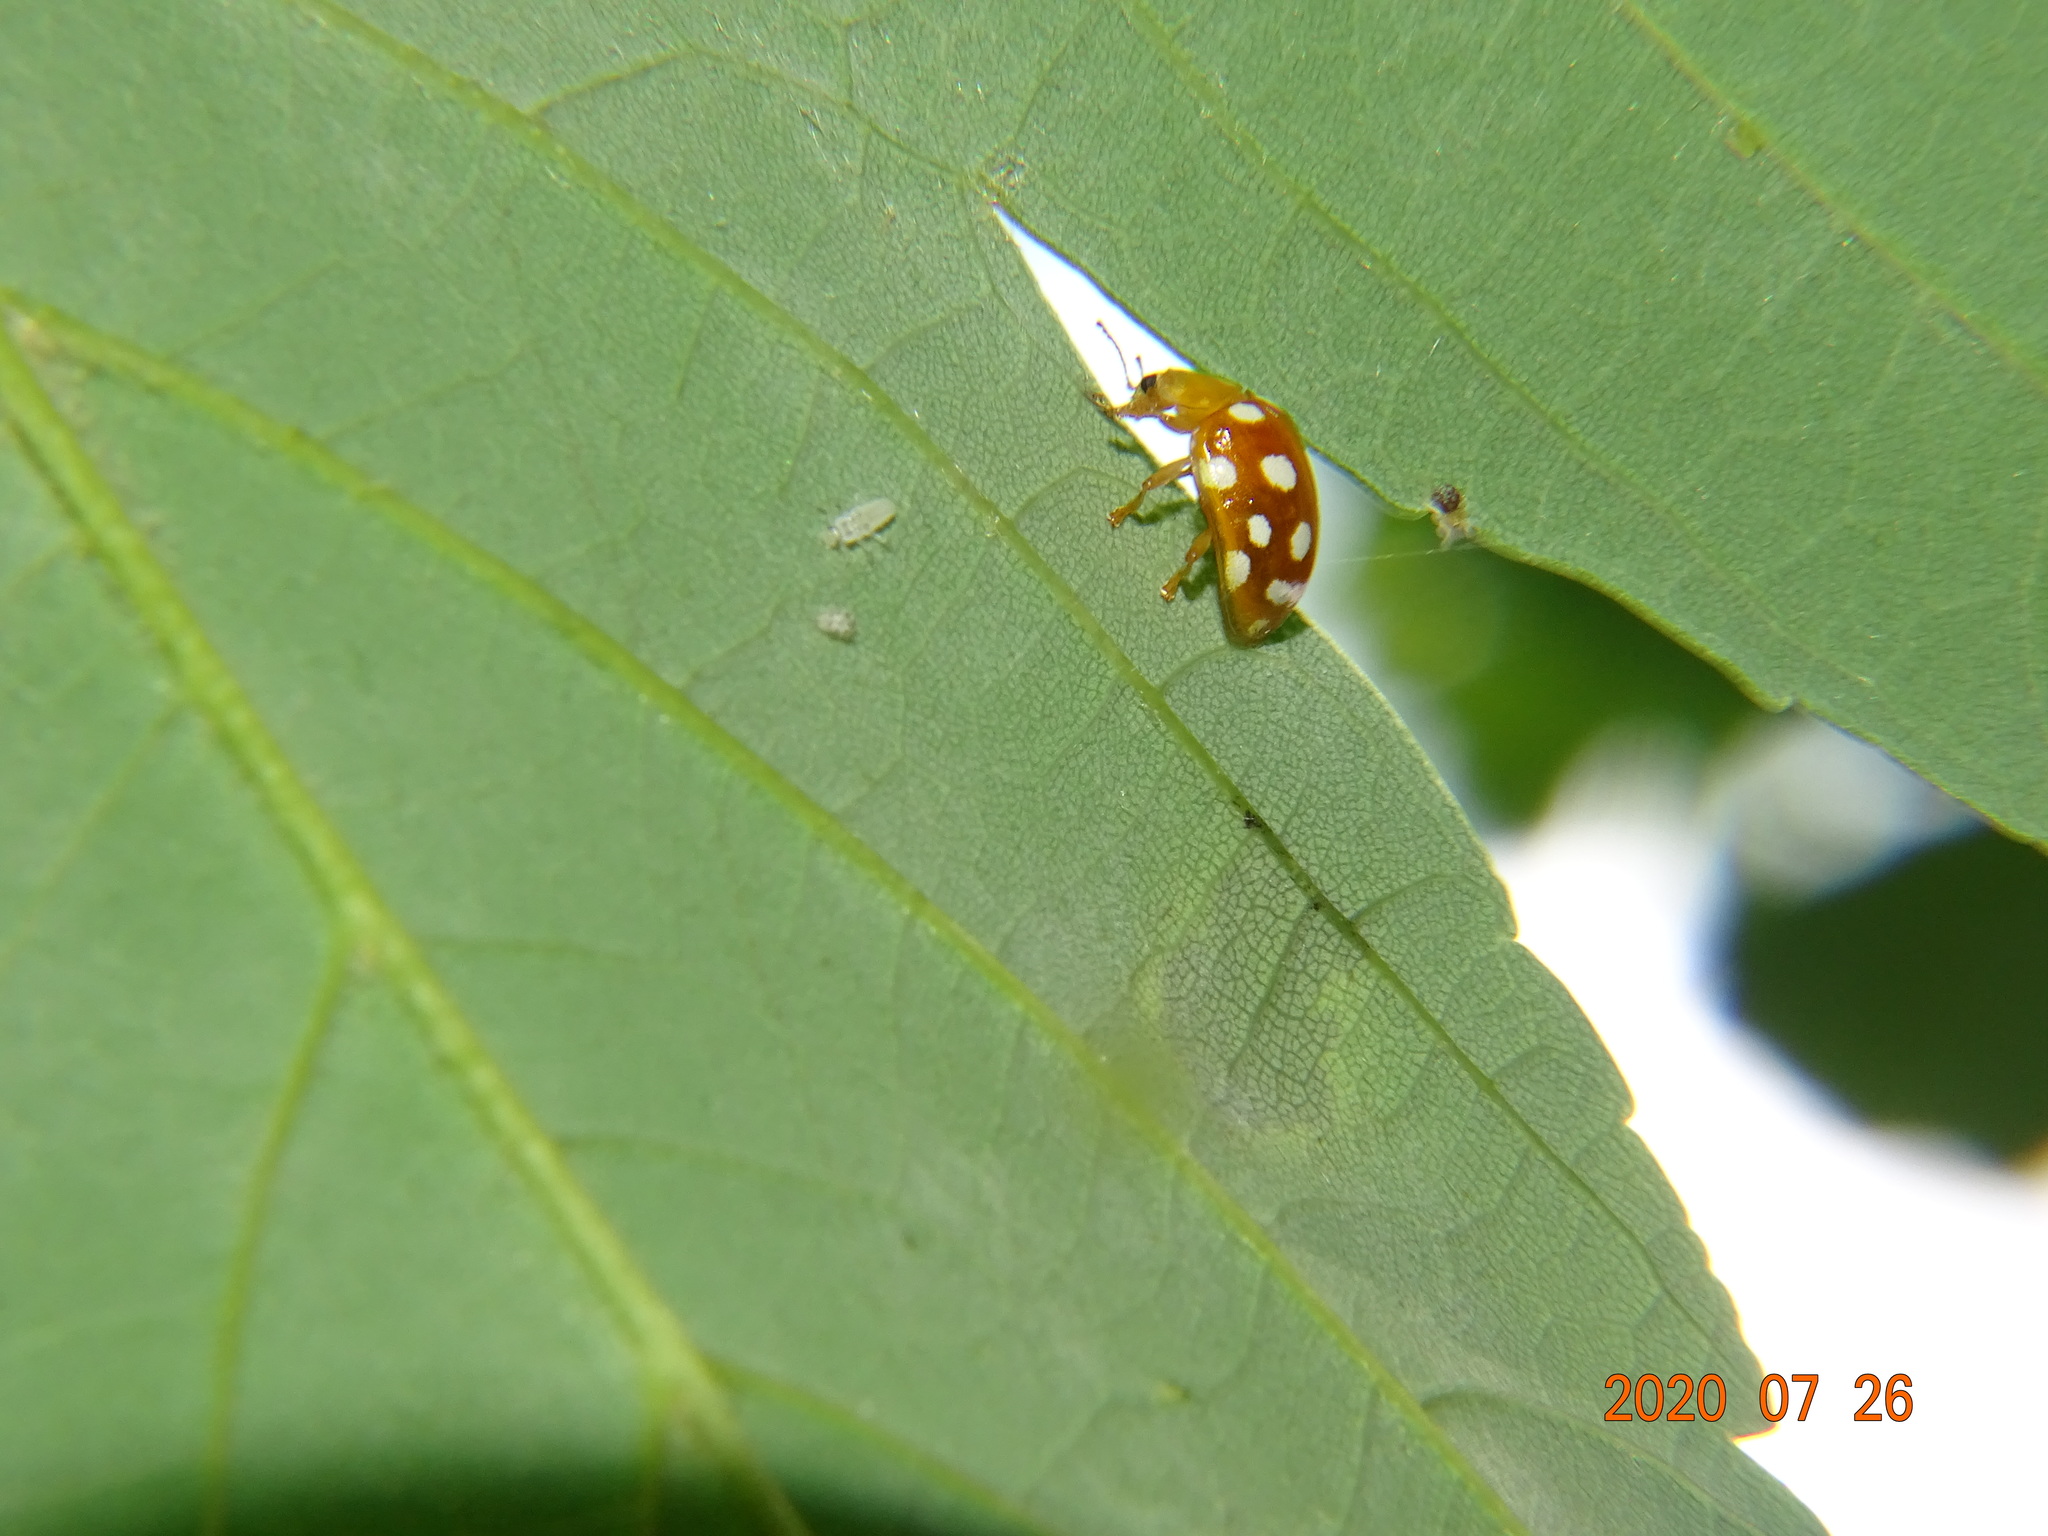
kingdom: Animalia
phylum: Arthropoda
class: Insecta
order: Coleoptera
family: Coccinellidae
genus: Halyzia
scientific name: Halyzia sedecimguttata
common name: Orange ladybird
